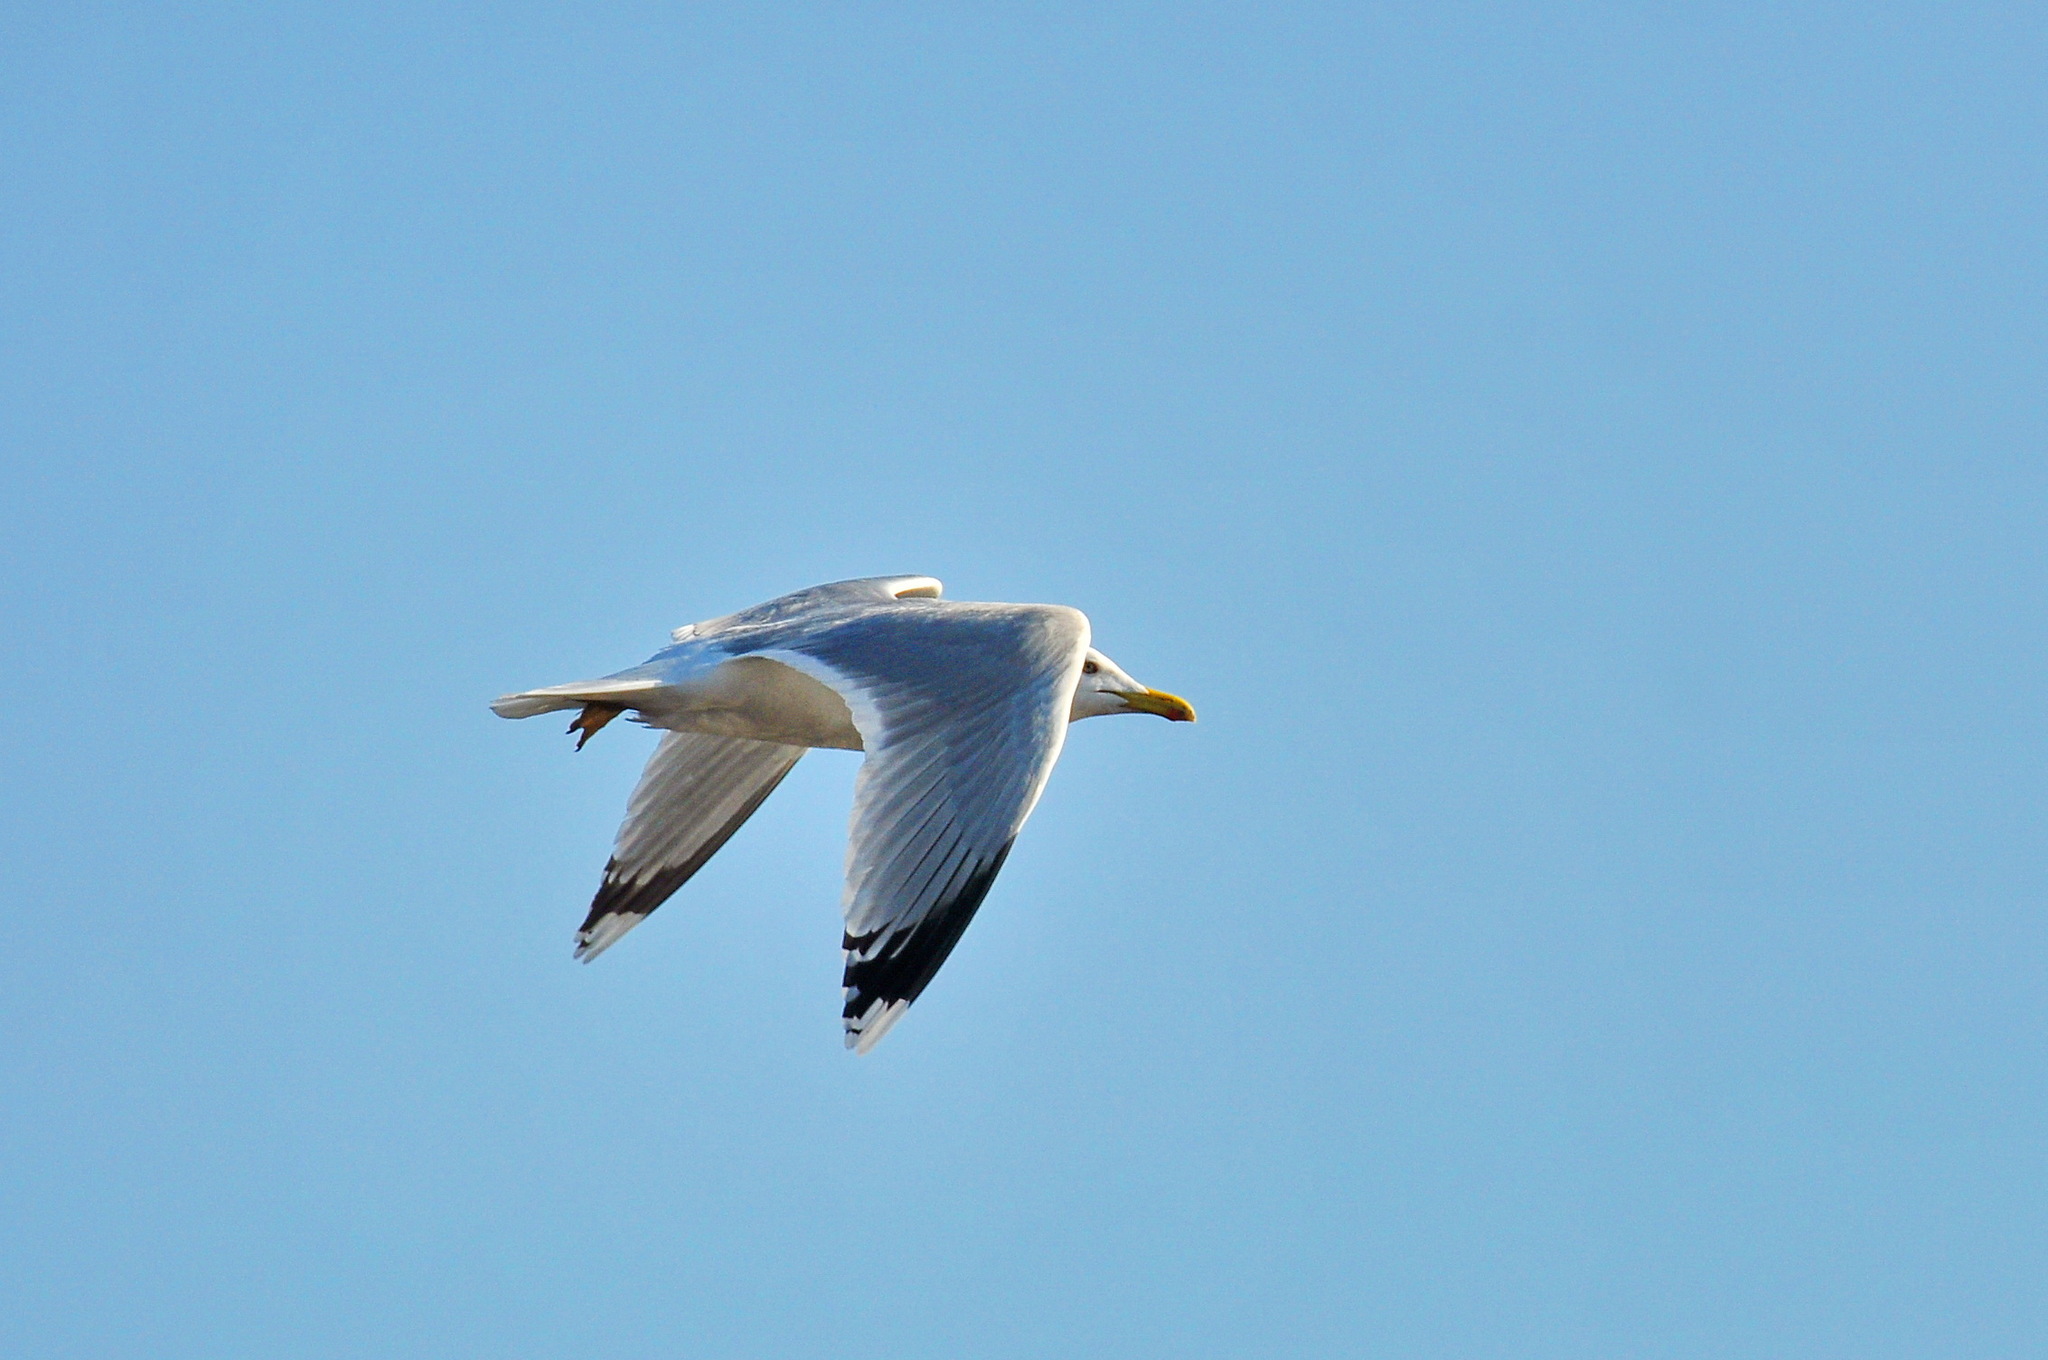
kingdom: Animalia
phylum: Chordata
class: Aves
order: Charadriiformes
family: Laridae
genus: Larus
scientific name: Larus argentatus
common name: Herring gull
